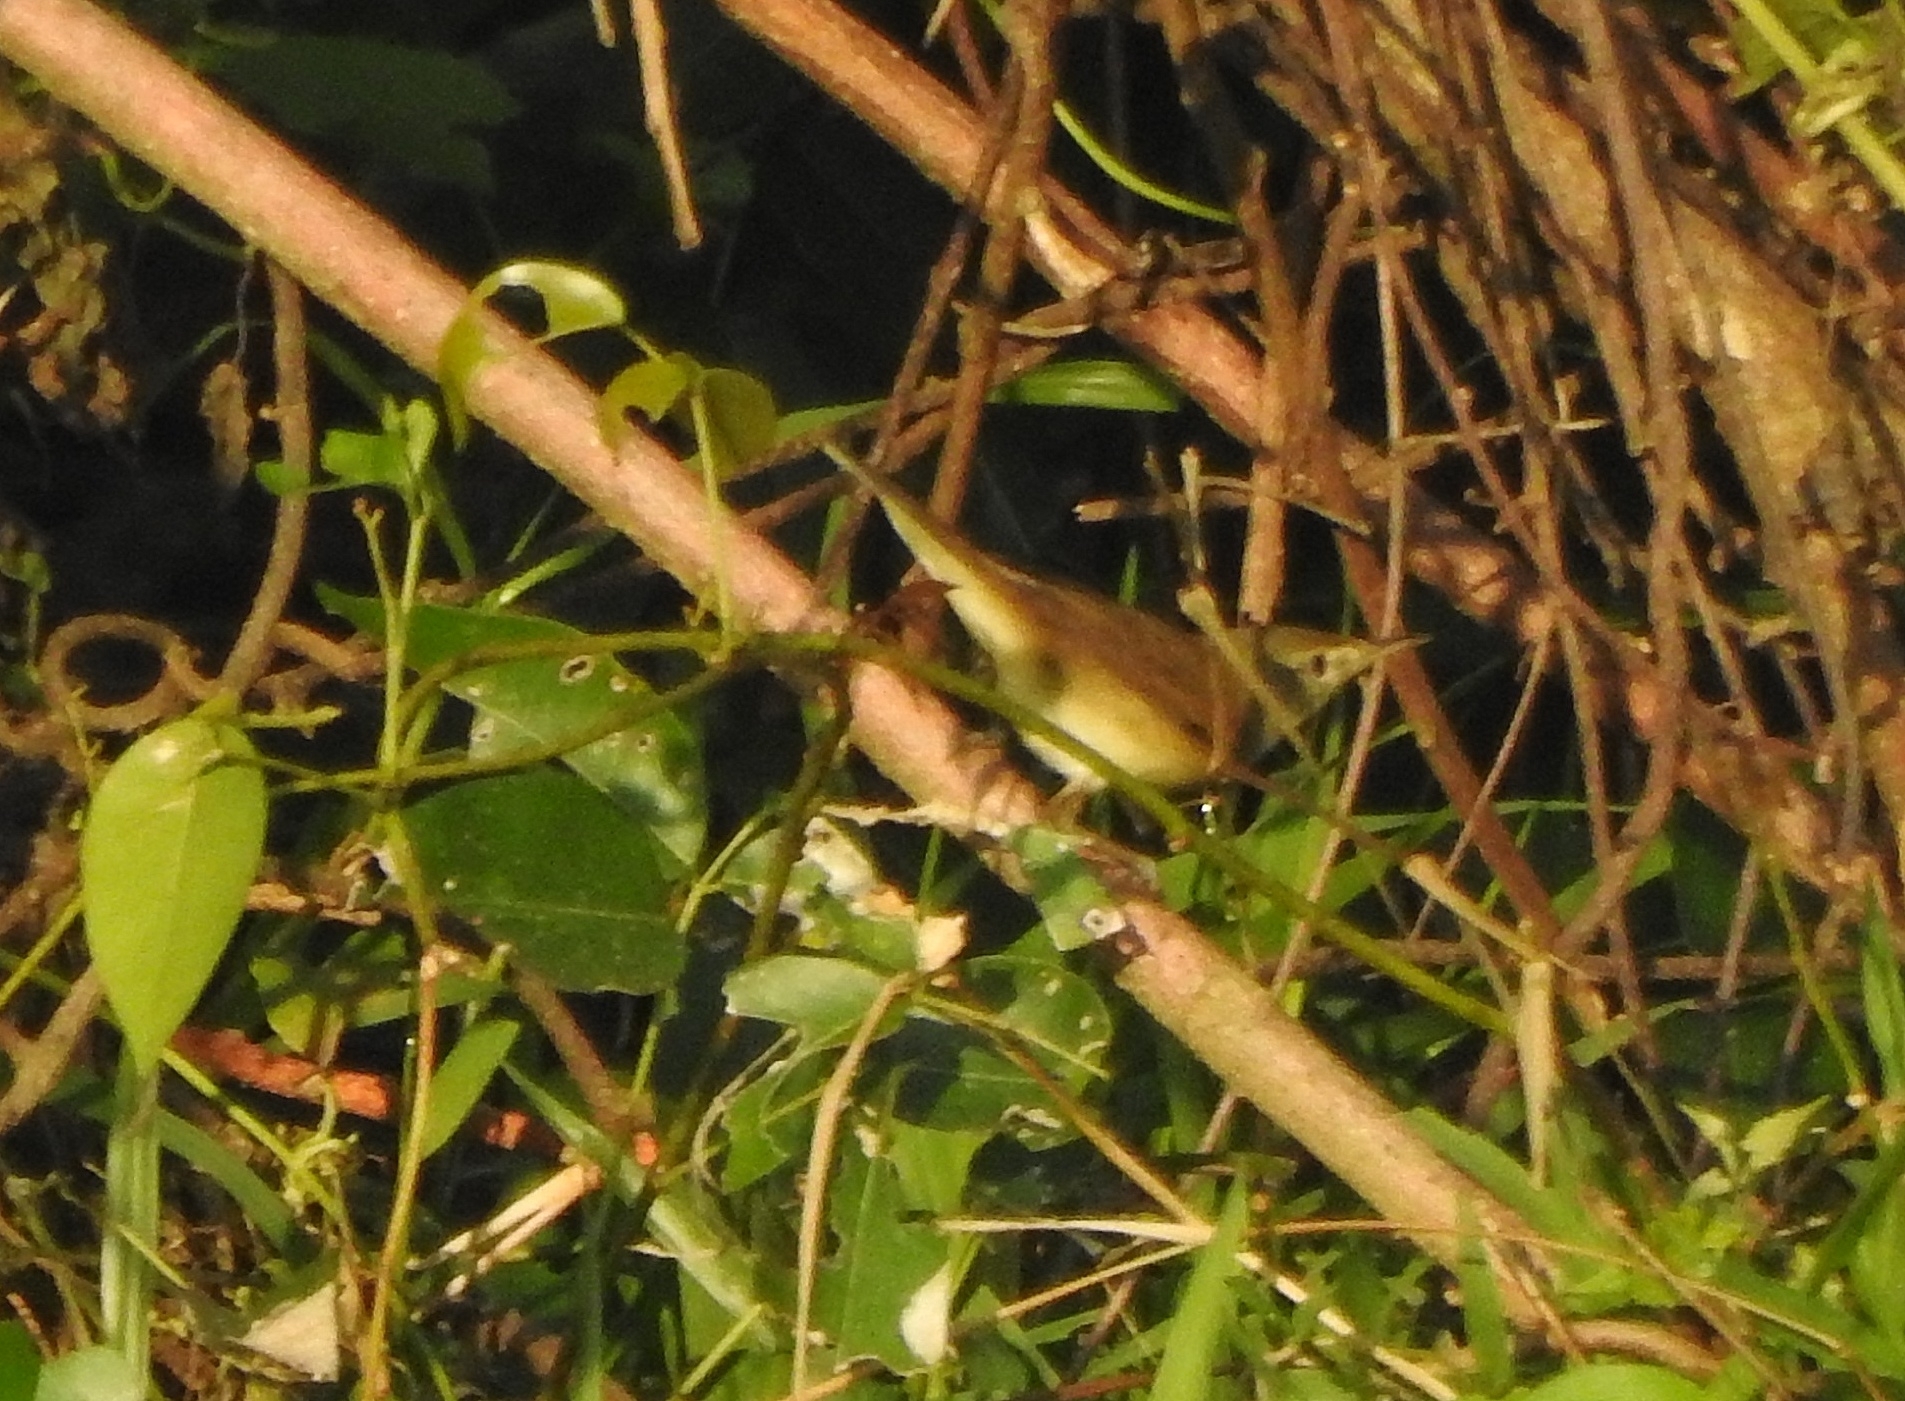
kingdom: Animalia
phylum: Chordata
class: Aves
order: Passeriformes
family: Acrocephalidae
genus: Acrocephalus
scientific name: Acrocephalus dumetorum
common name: Blyth's reed warbler
